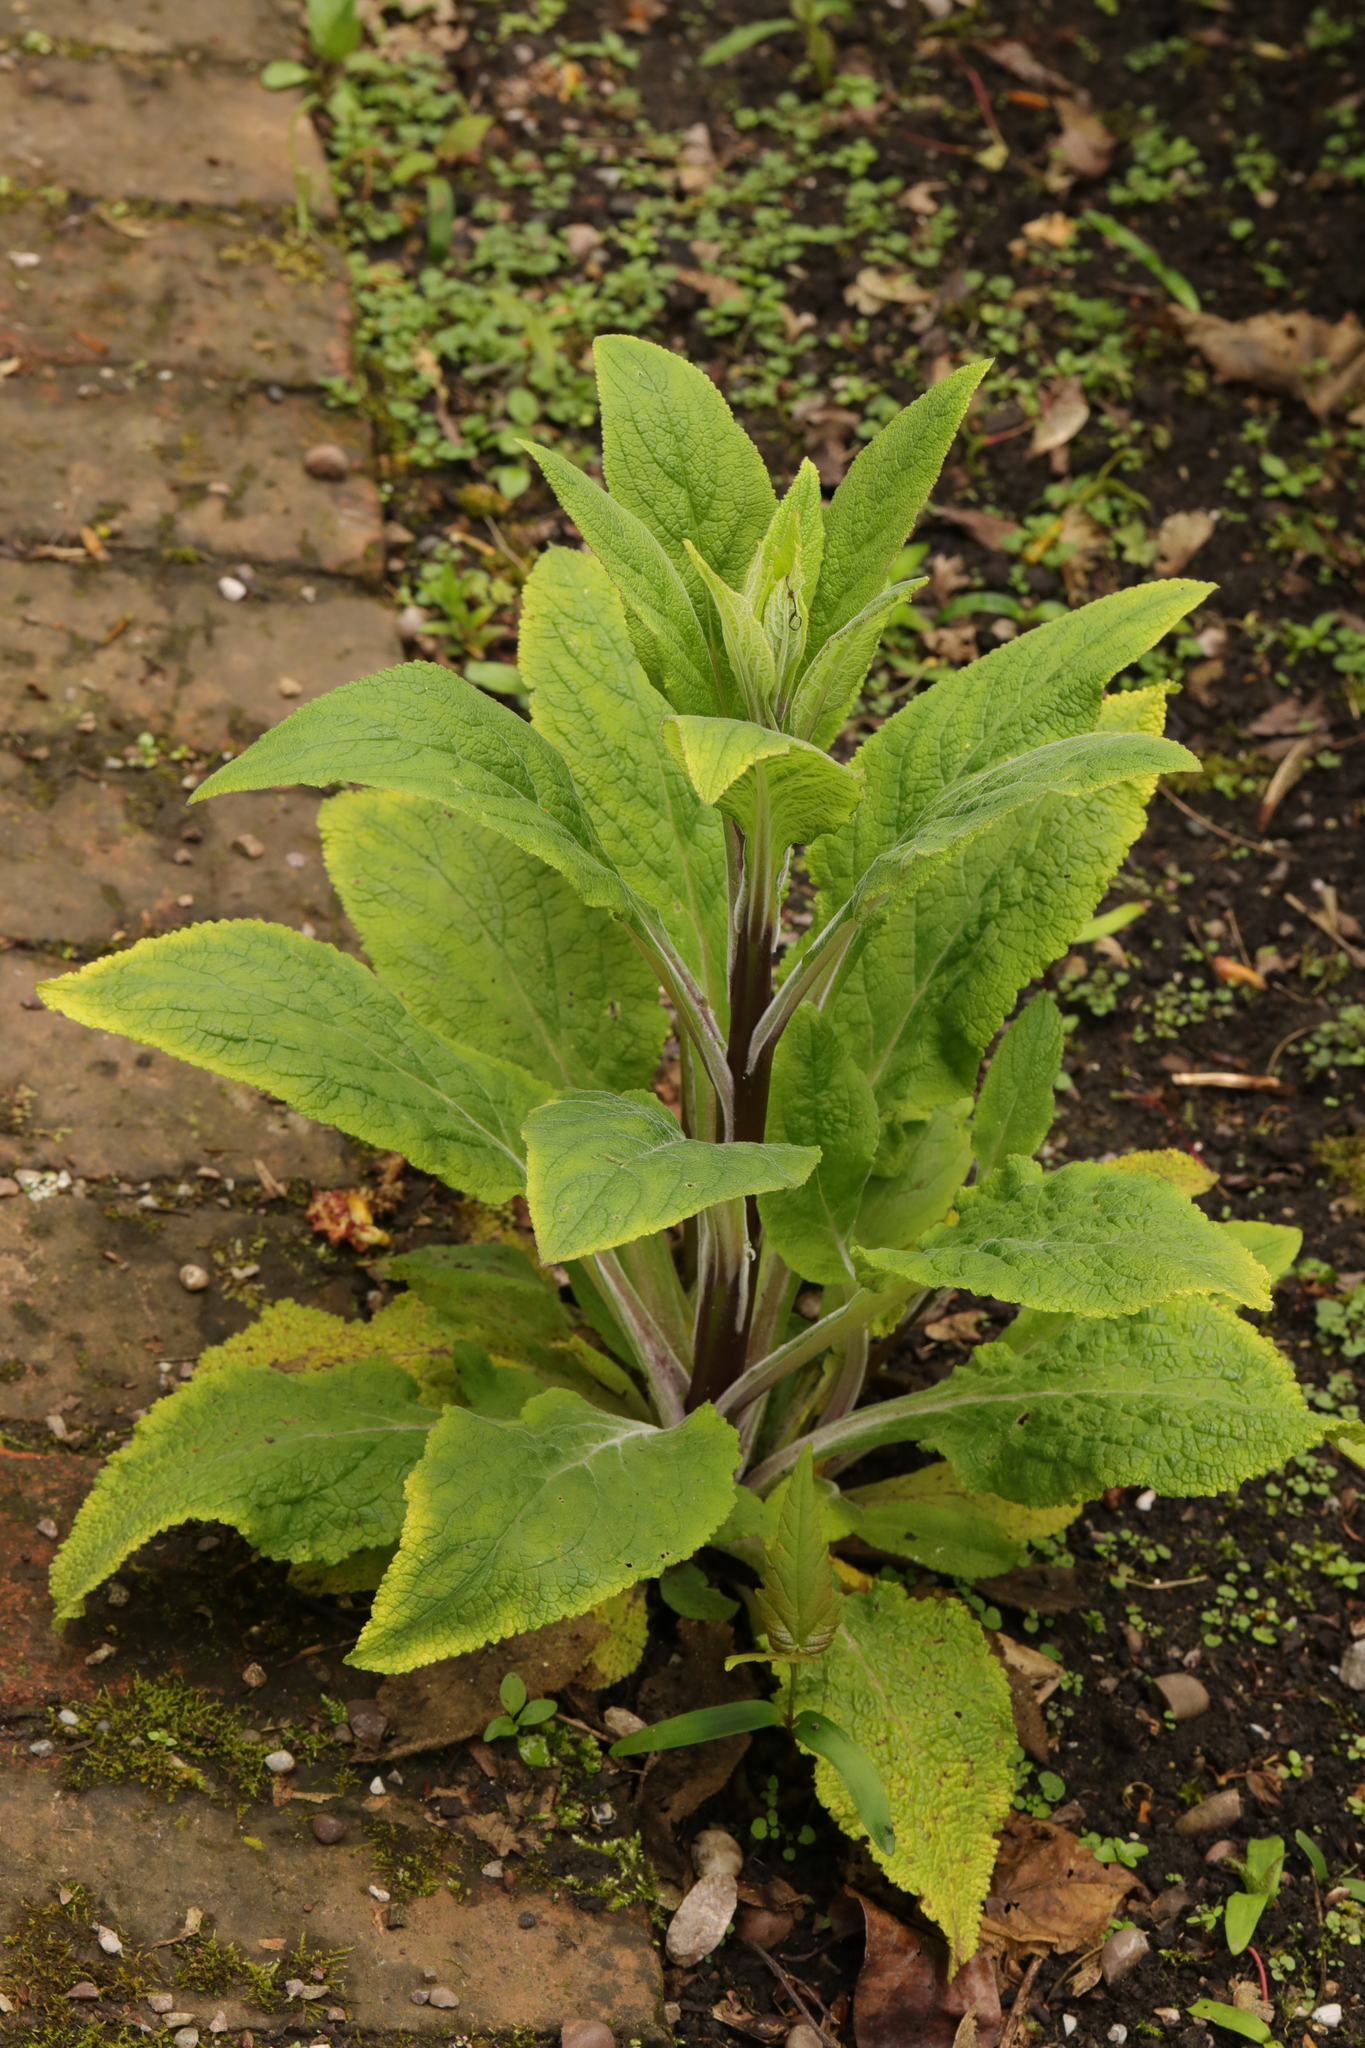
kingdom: Plantae
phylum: Tracheophyta
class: Magnoliopsida
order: Lamiales
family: Plantaginaceae
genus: Digitalis
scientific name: Digitalis purpurea
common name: Foxglove
